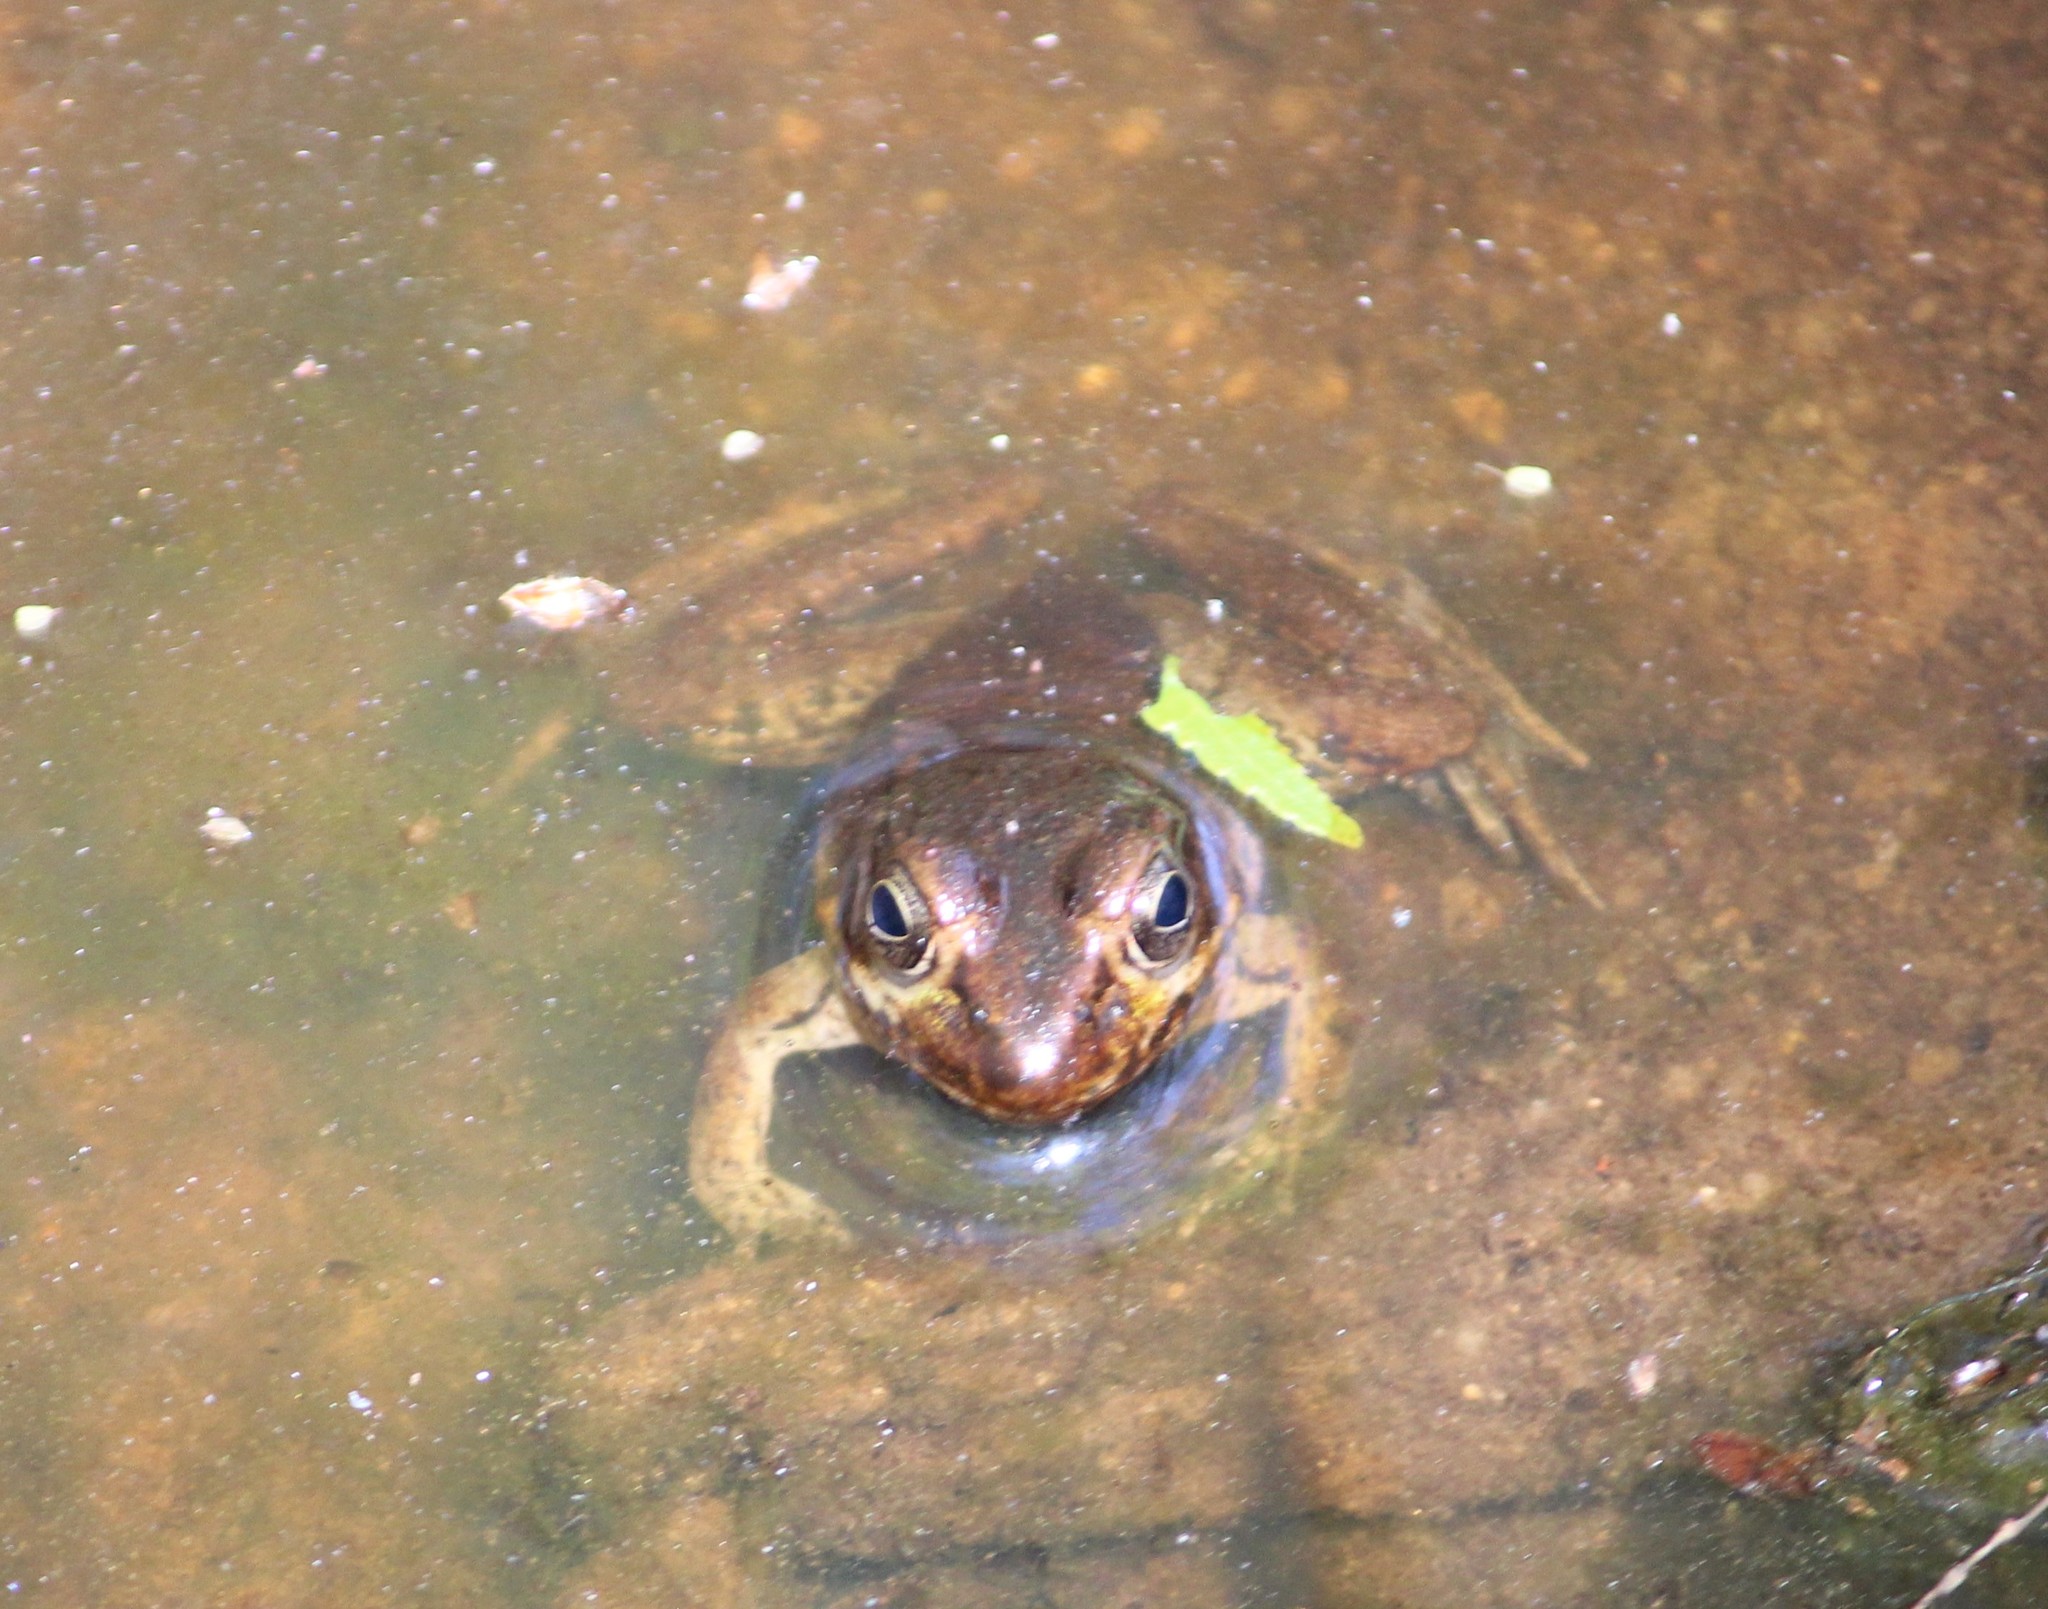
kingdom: Animalia
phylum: Chordata
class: Amphibia
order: Anura
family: Ranidae
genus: Lithobates
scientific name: Lithobates clamitans
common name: Green frog
